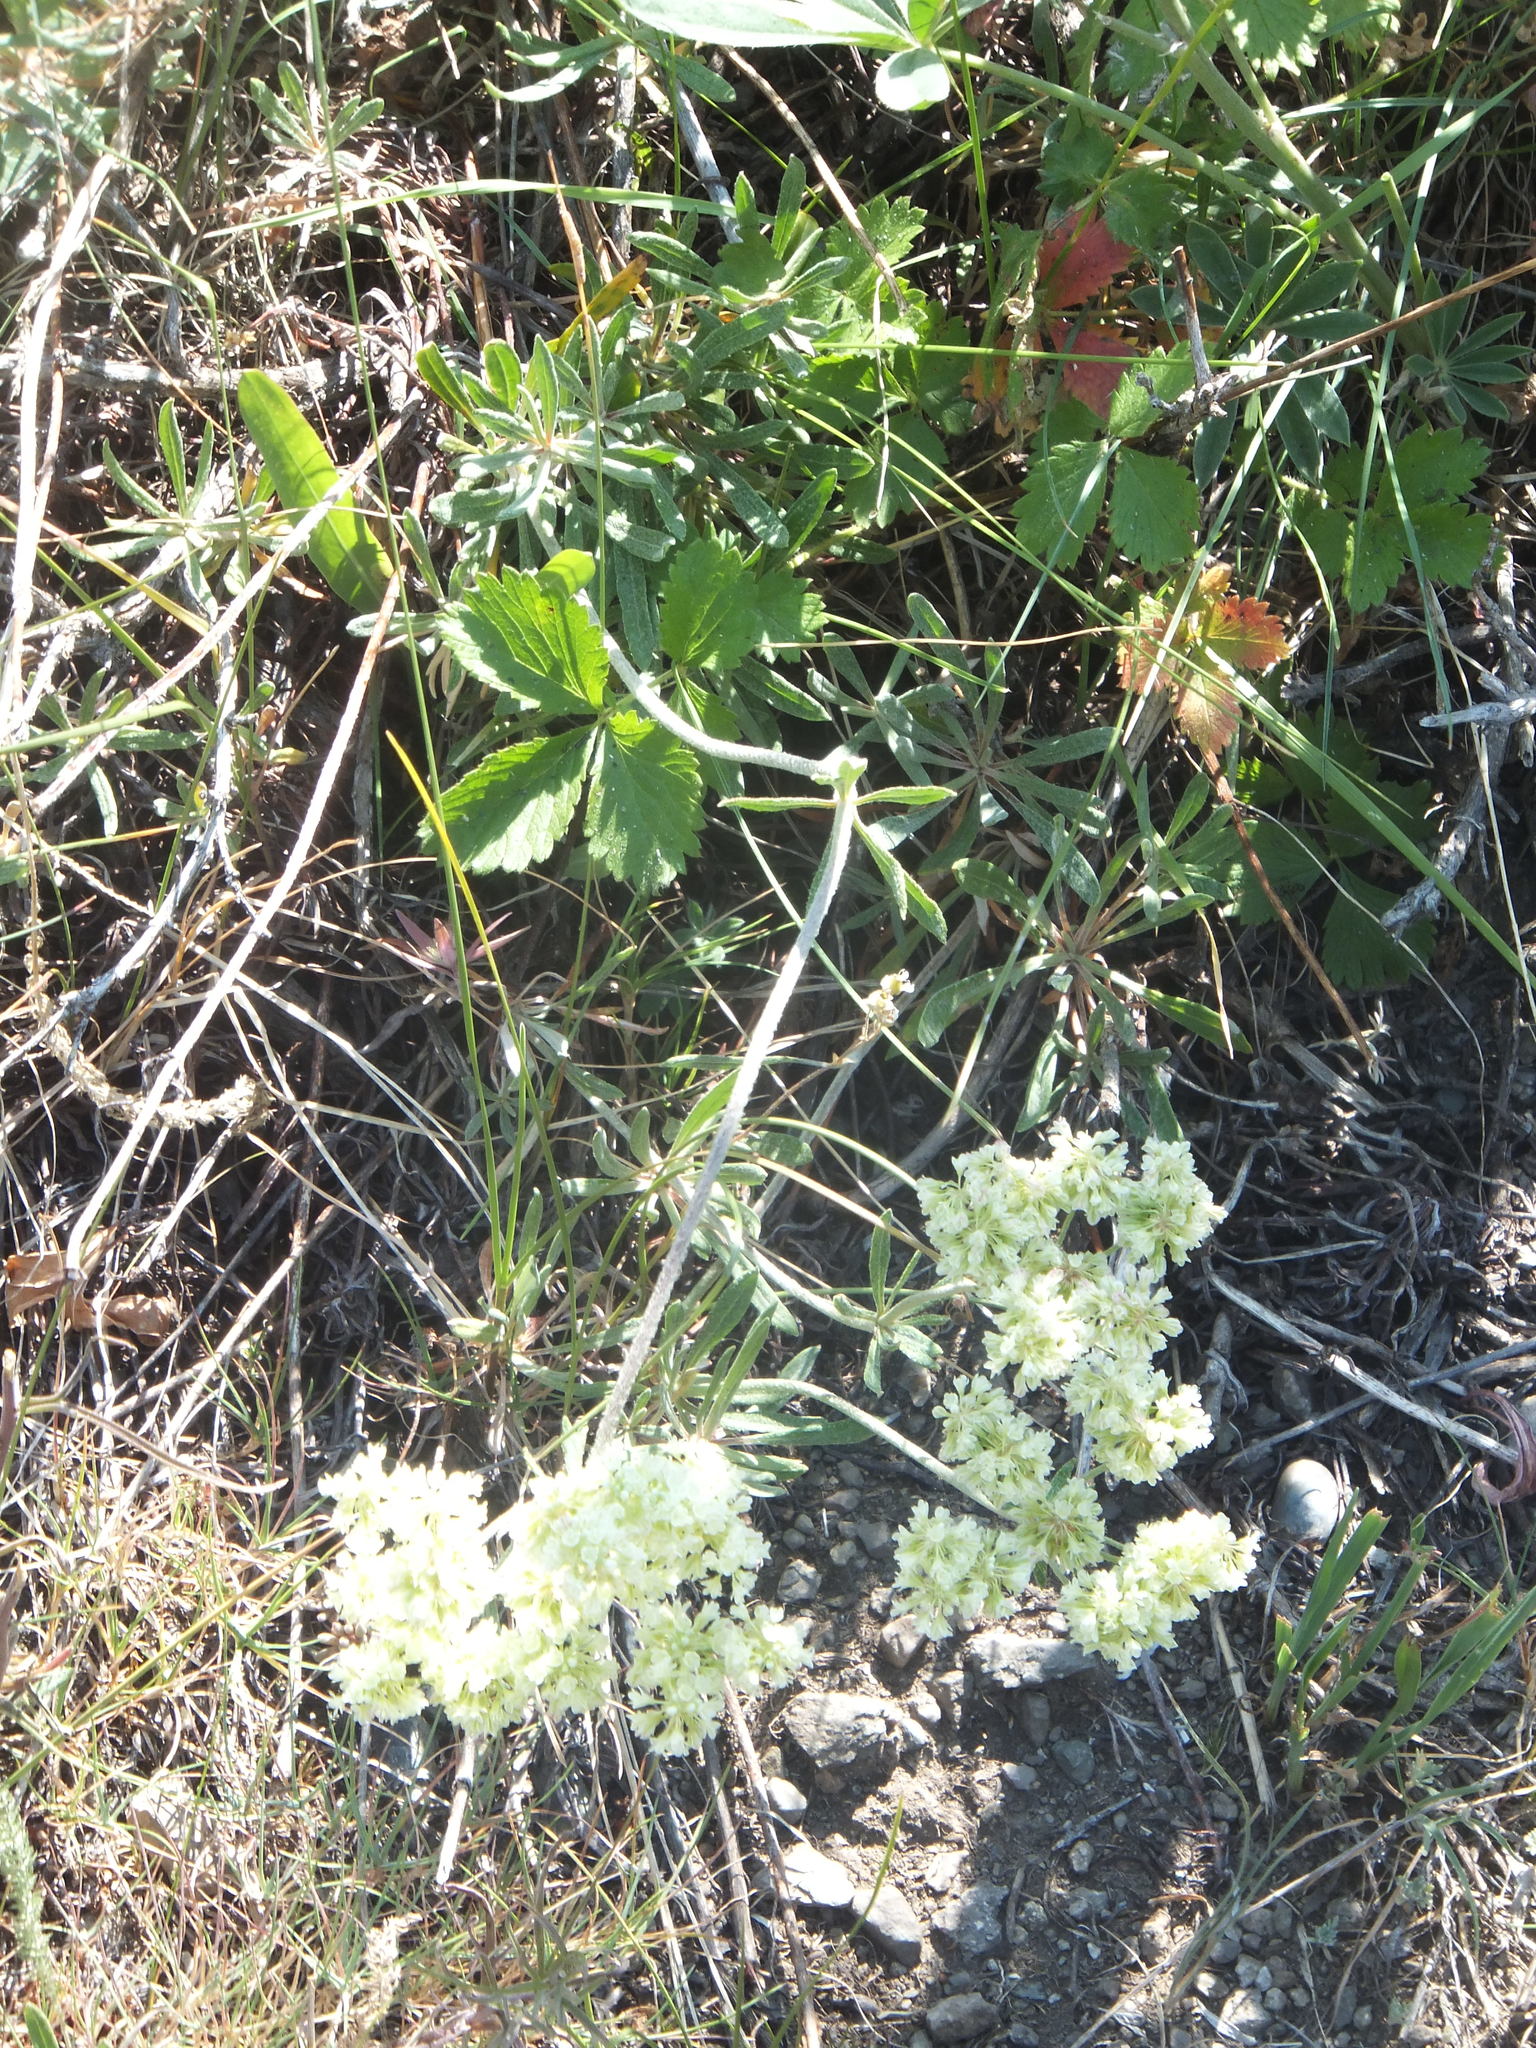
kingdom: Plantae
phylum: Tracheophyta
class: Magnoliopsida
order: Caryophyllales
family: Polygonaceae
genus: Eriogonum
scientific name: Eriogonum heracleoides
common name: Wyeth's buckwheat
